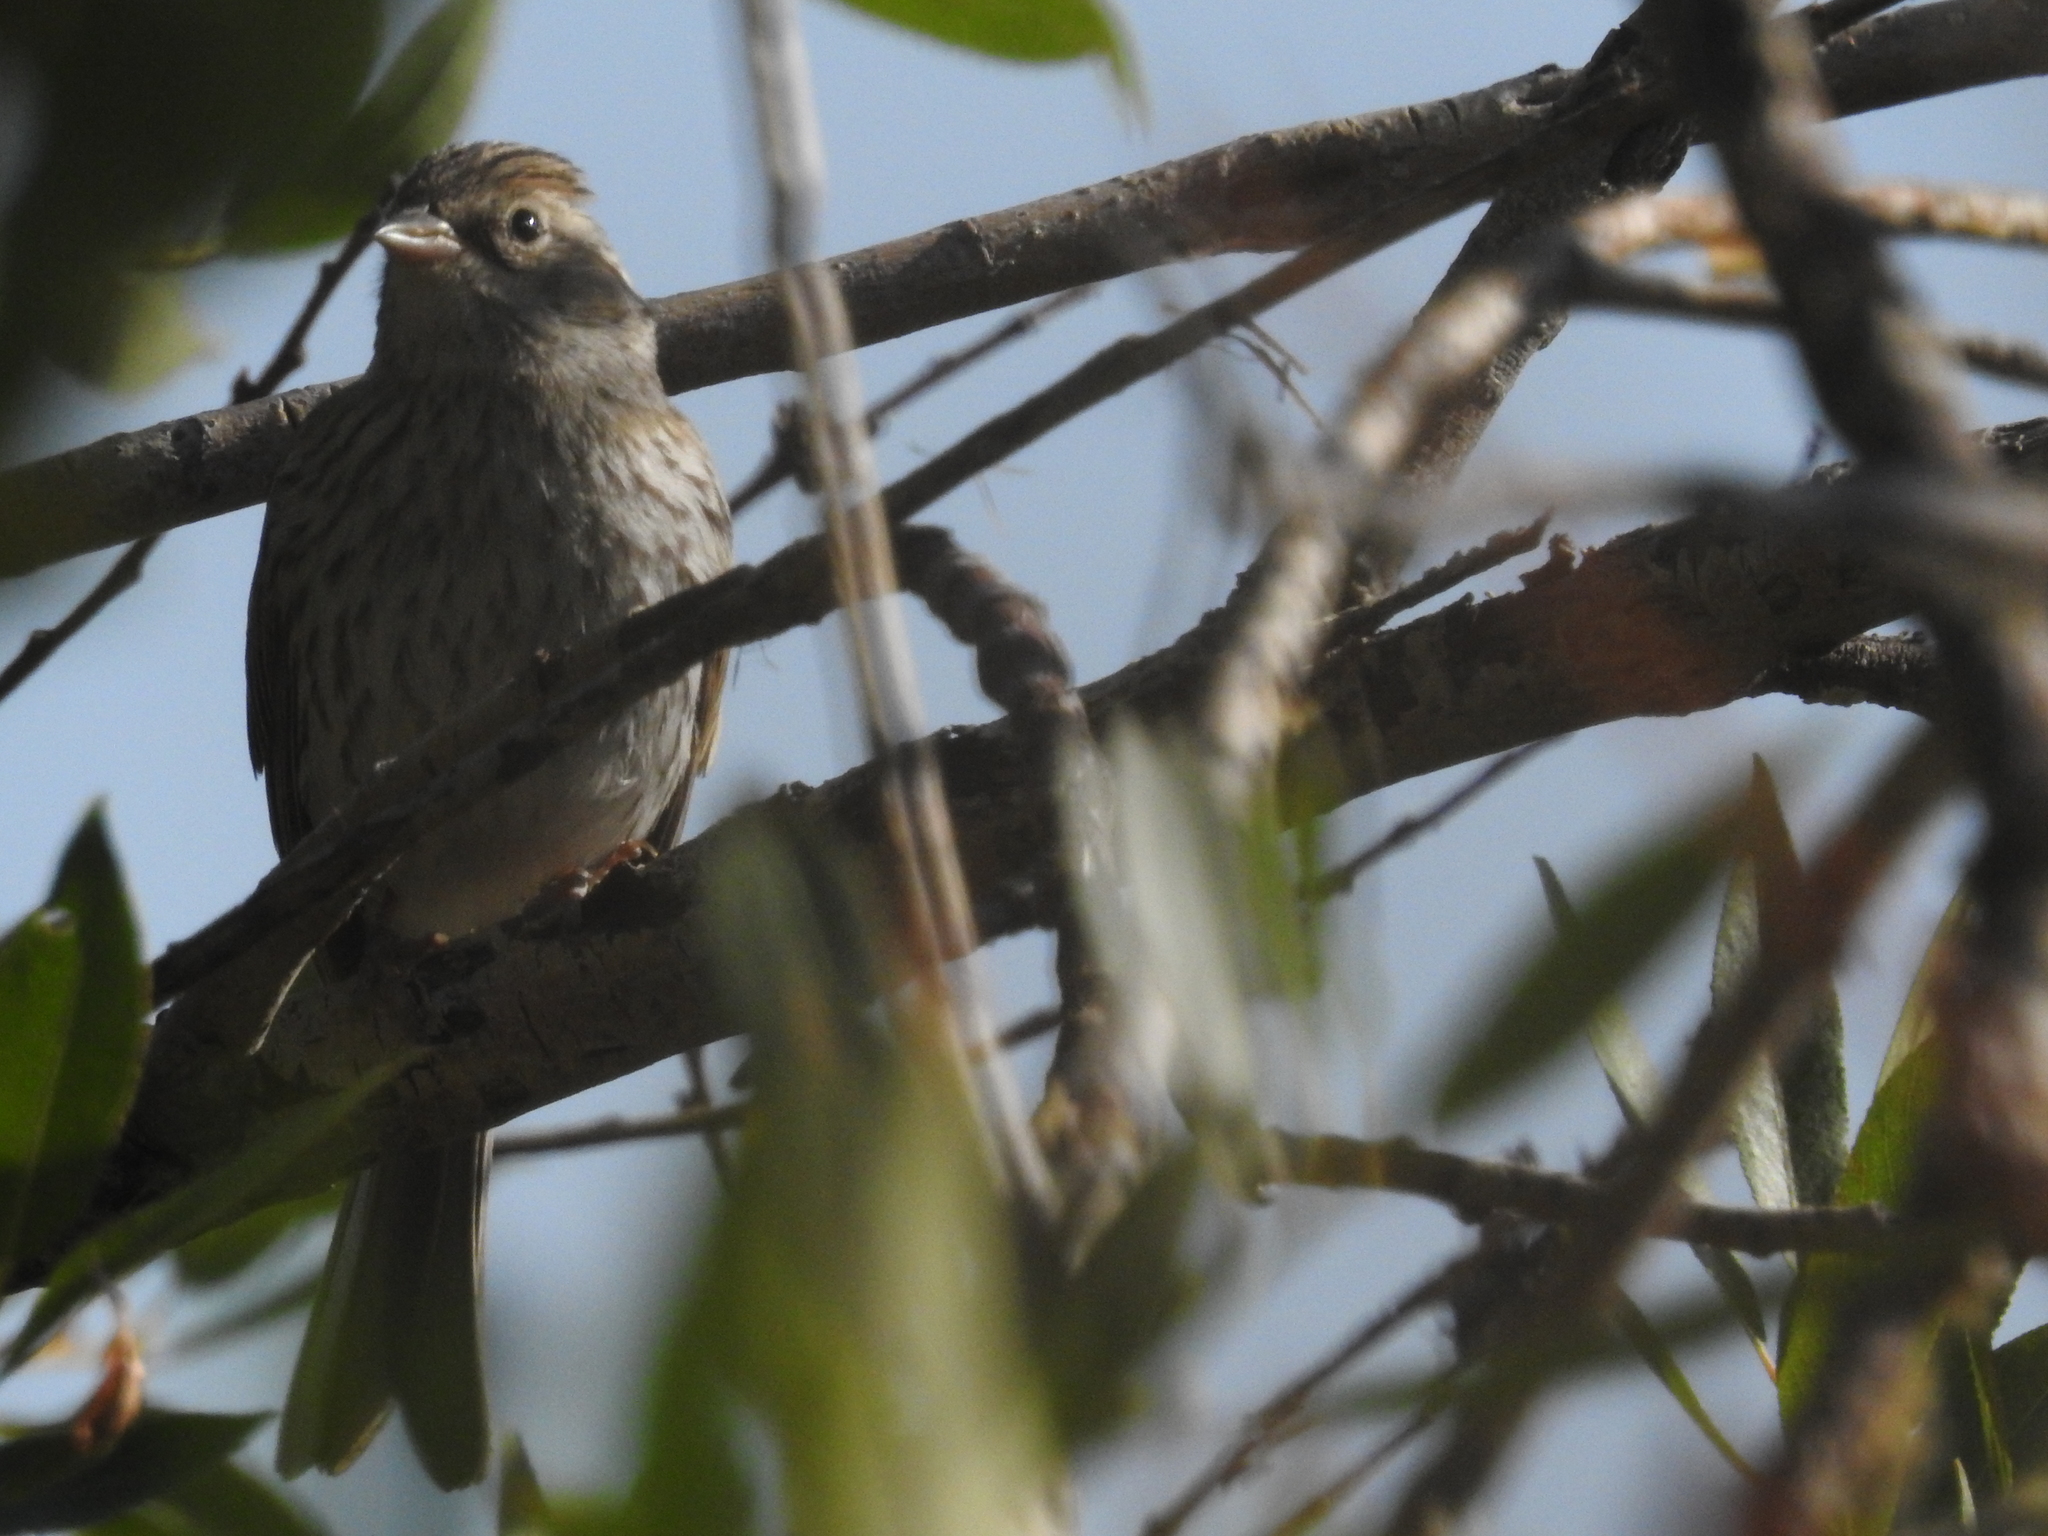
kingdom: Animalia
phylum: Chordata
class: Aves
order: Passeriformes
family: Passerellidae
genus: Spizella
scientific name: Spizella passerina
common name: Chipping sparrow
